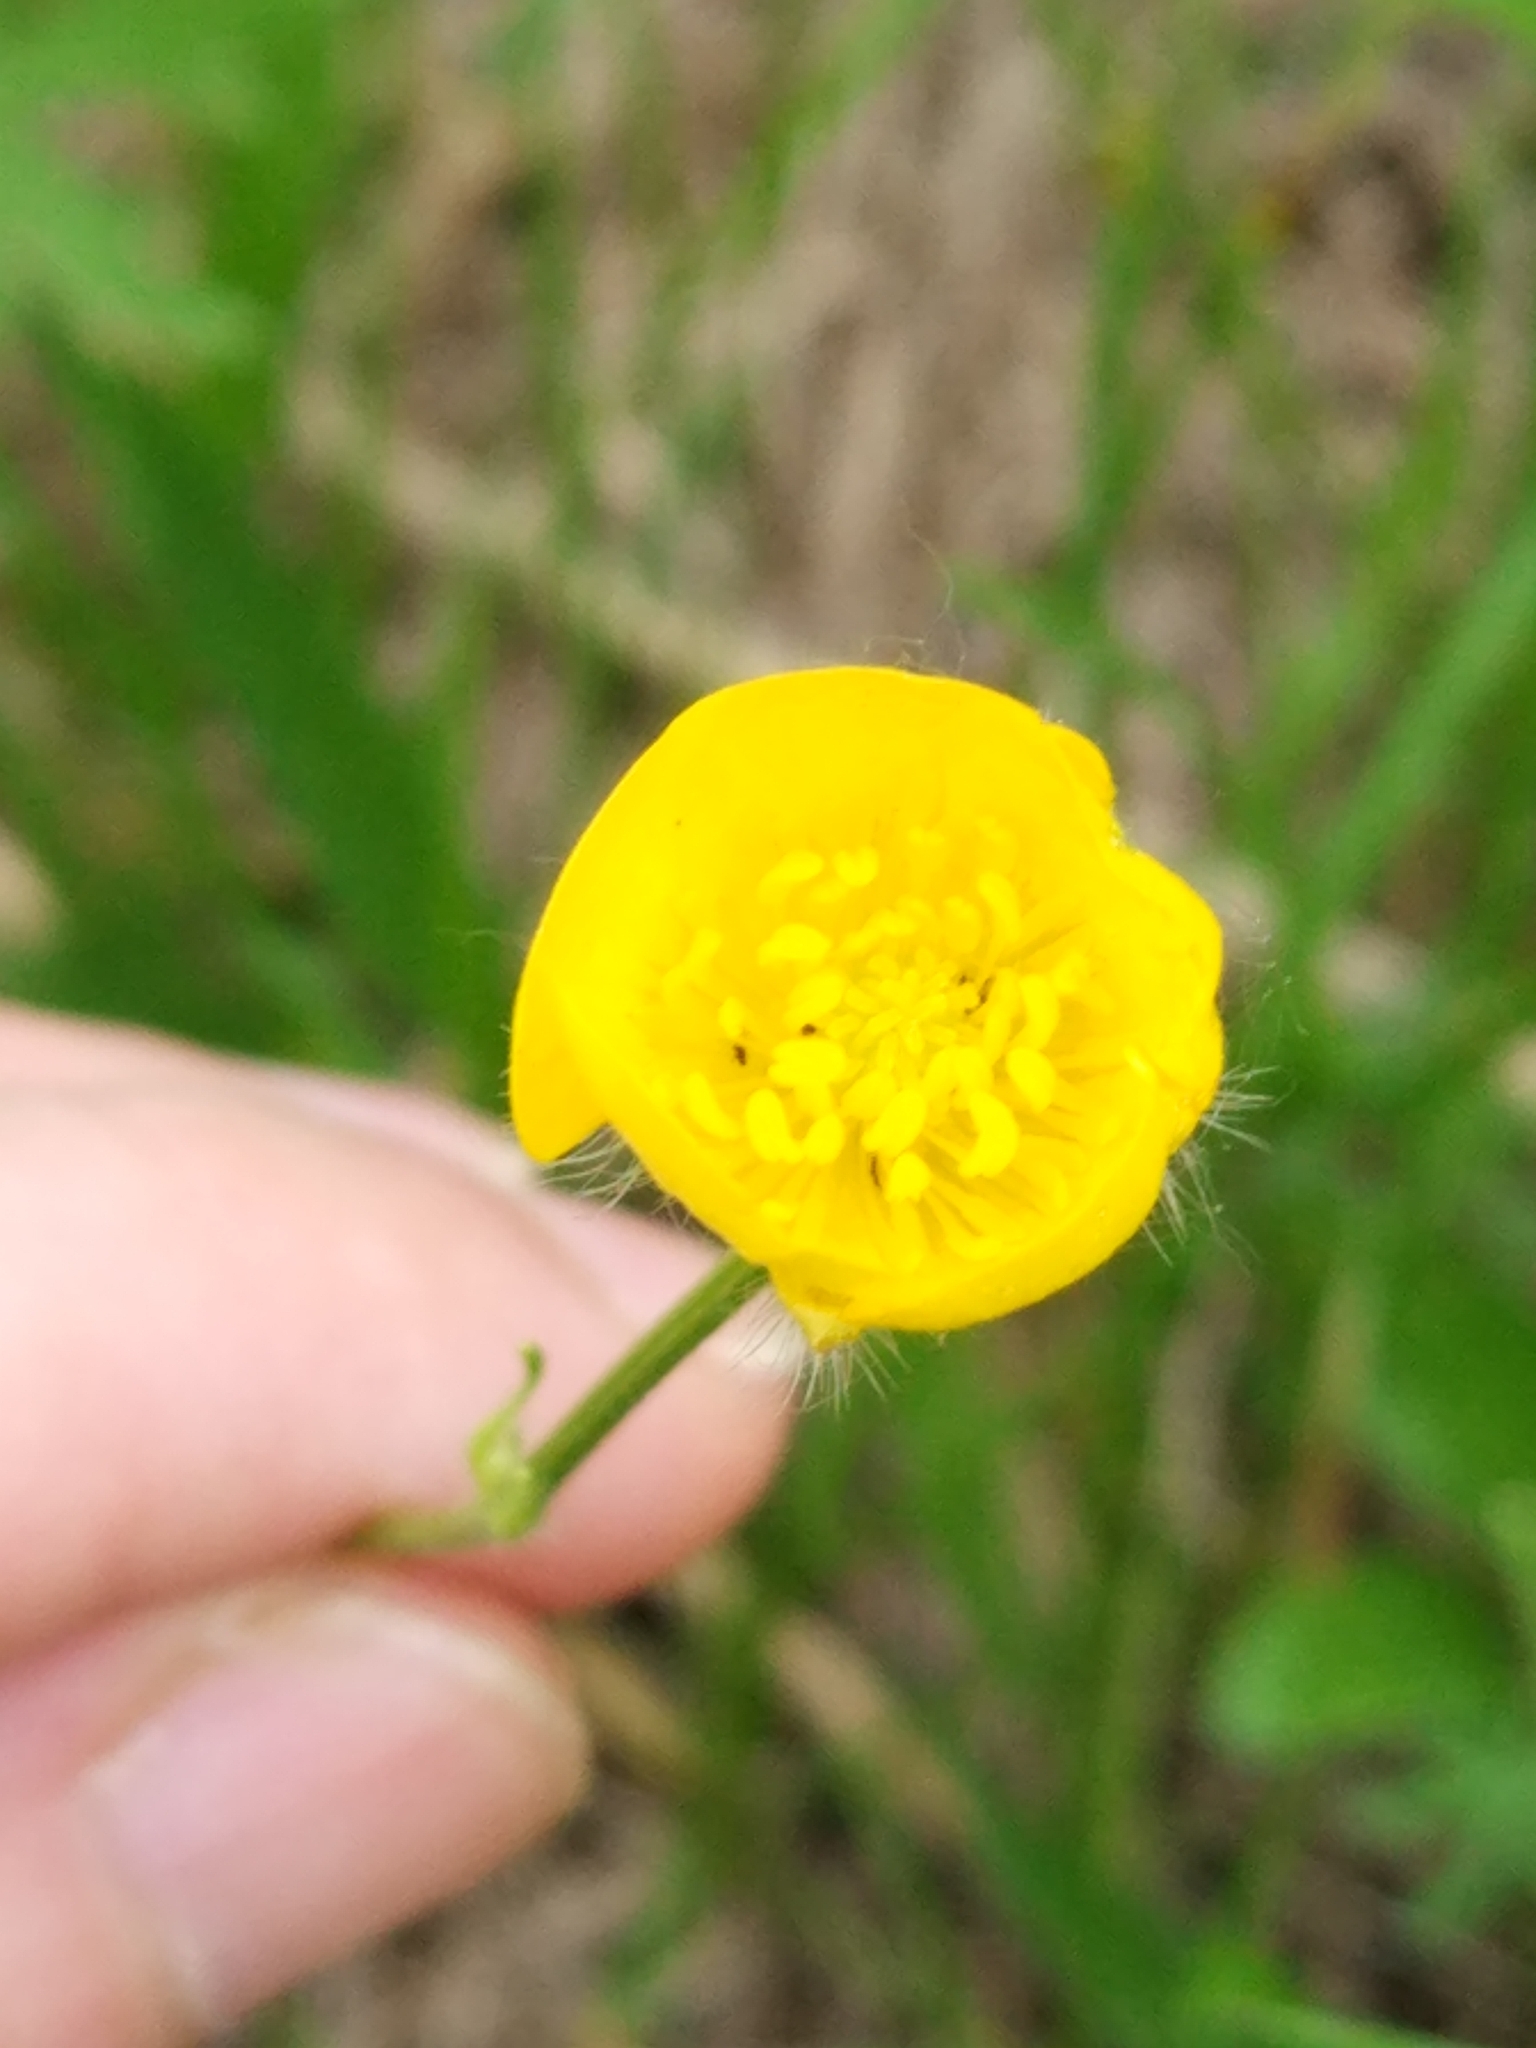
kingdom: Plantae
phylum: Tracheophyta
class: Magnoliopsida
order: Ranunculales
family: Ranunculaceae
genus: Ranunculus
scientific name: Ranunculus polyanthemos
